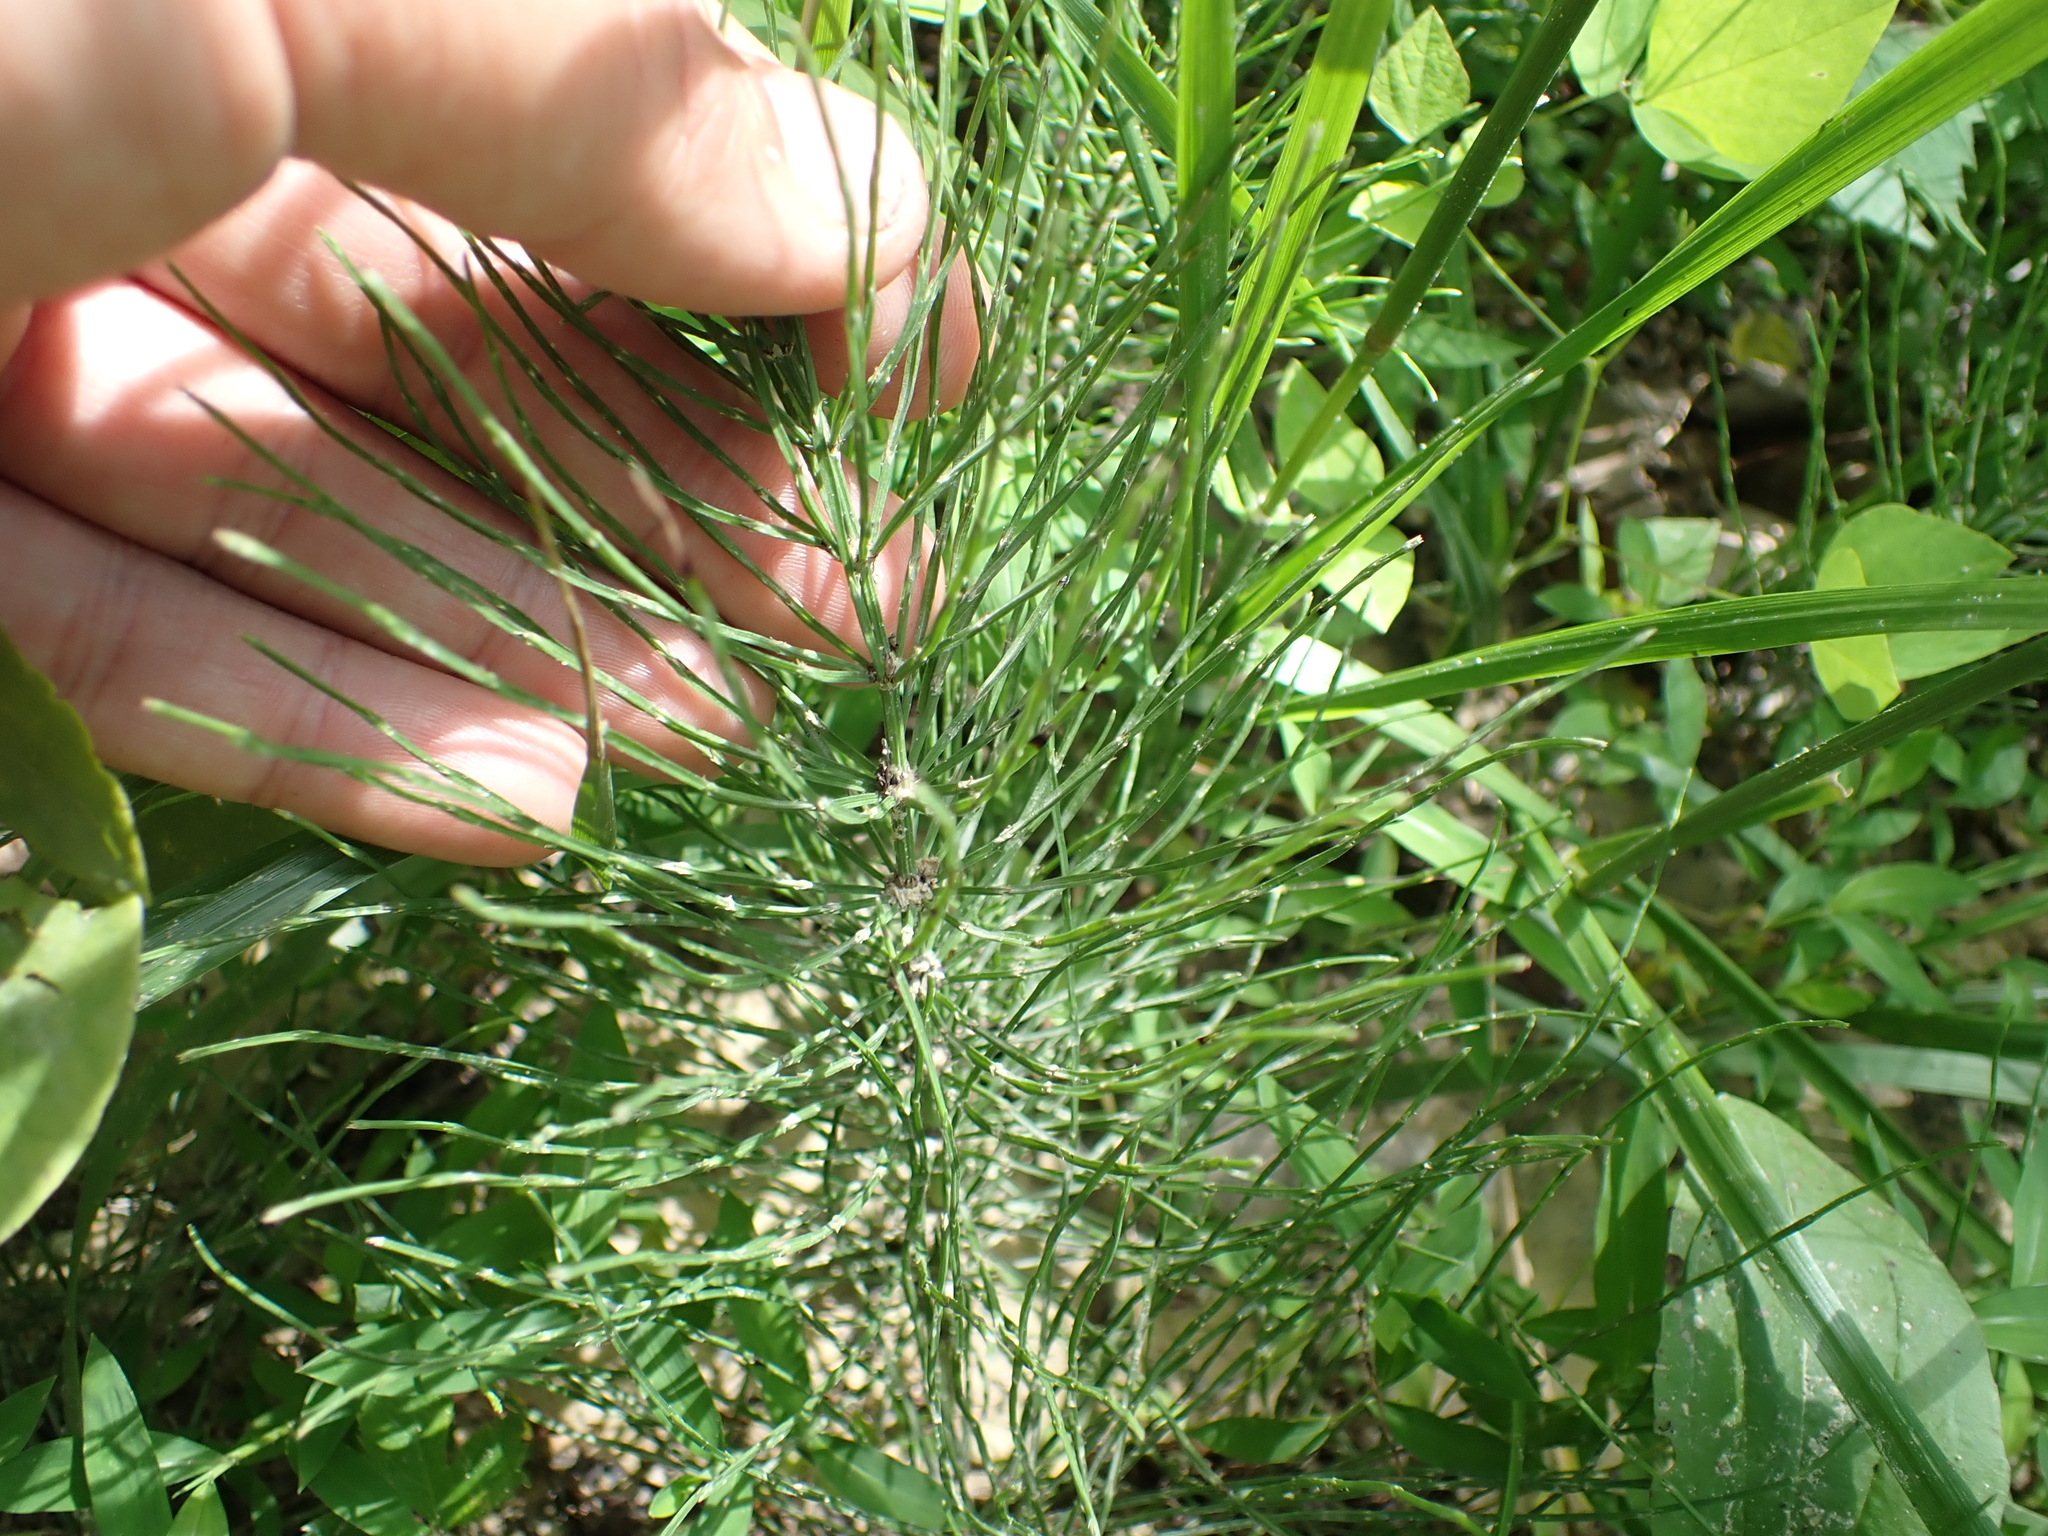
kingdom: Plantae
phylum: Tracheophyta
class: Polypodiopsida
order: Equisetales
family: Equisetaceae
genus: Equisetum
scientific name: Equisetum arvense
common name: Field horsetail
